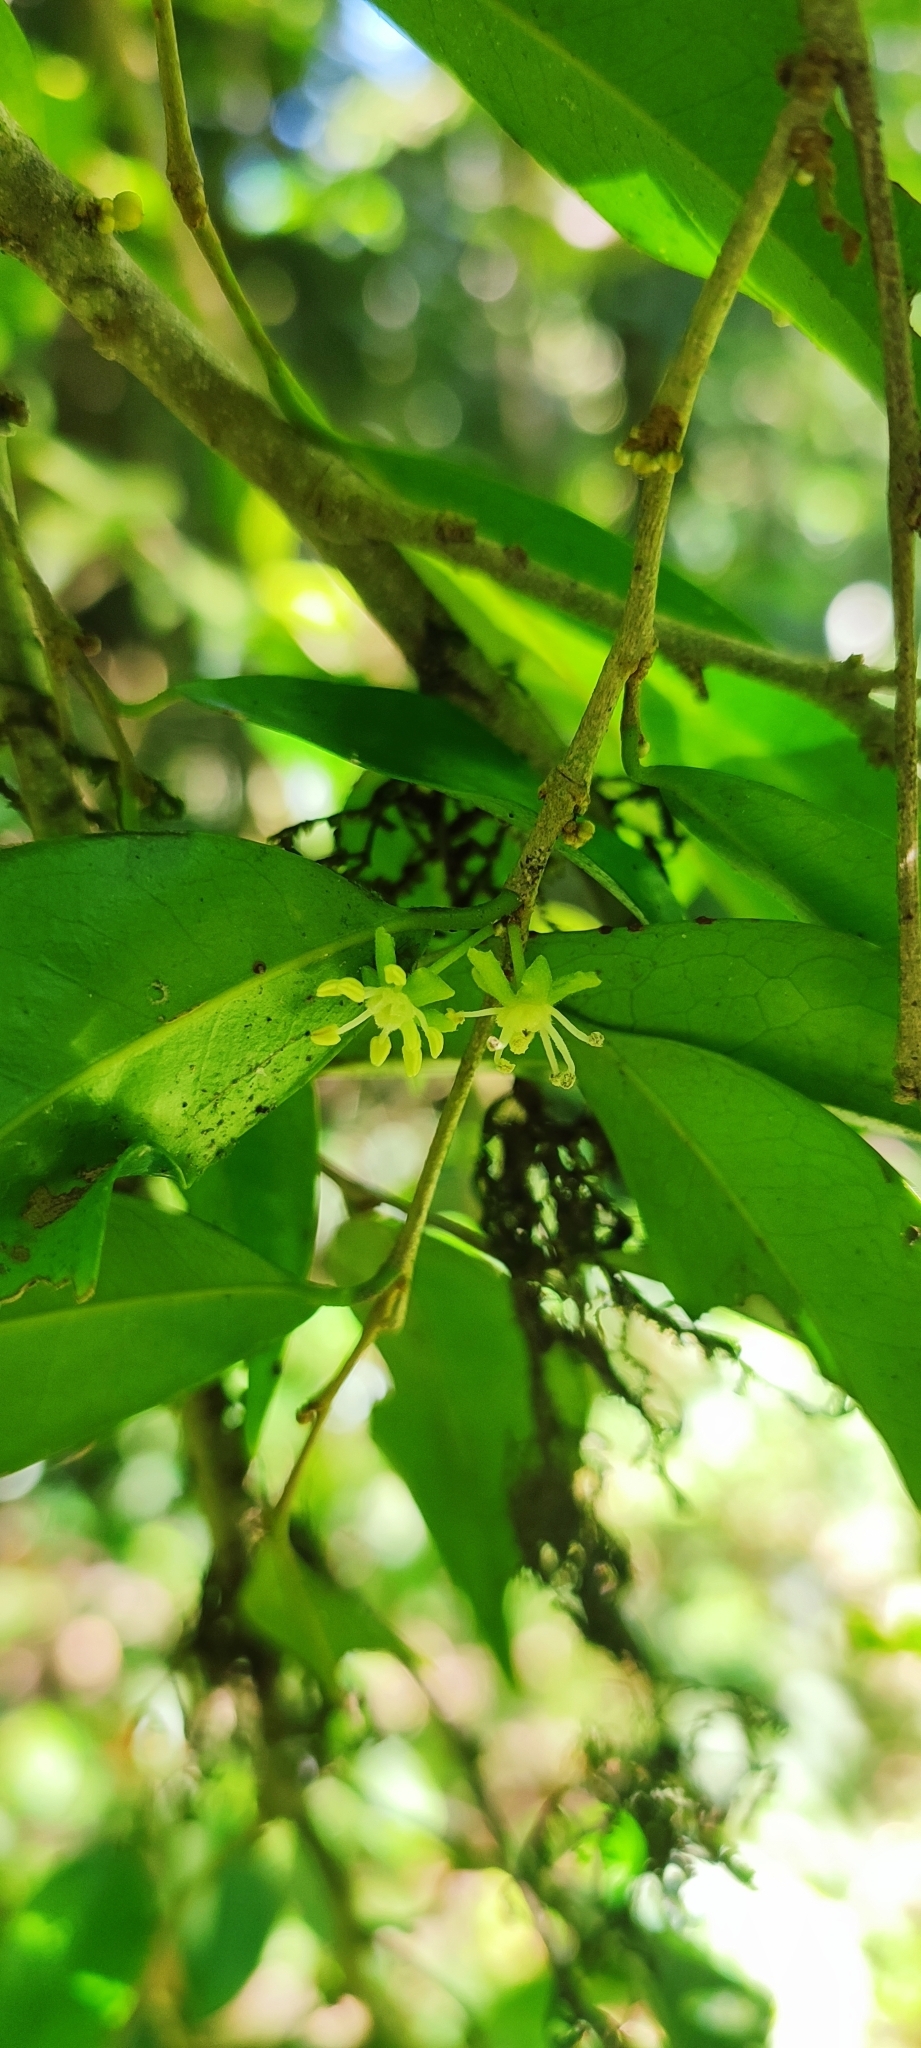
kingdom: Plantae
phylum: Tracheophyta
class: Magnoliopsida
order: Malpighiales
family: Putranjivaceae
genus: Drypetes
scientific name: Drypetes wightii
